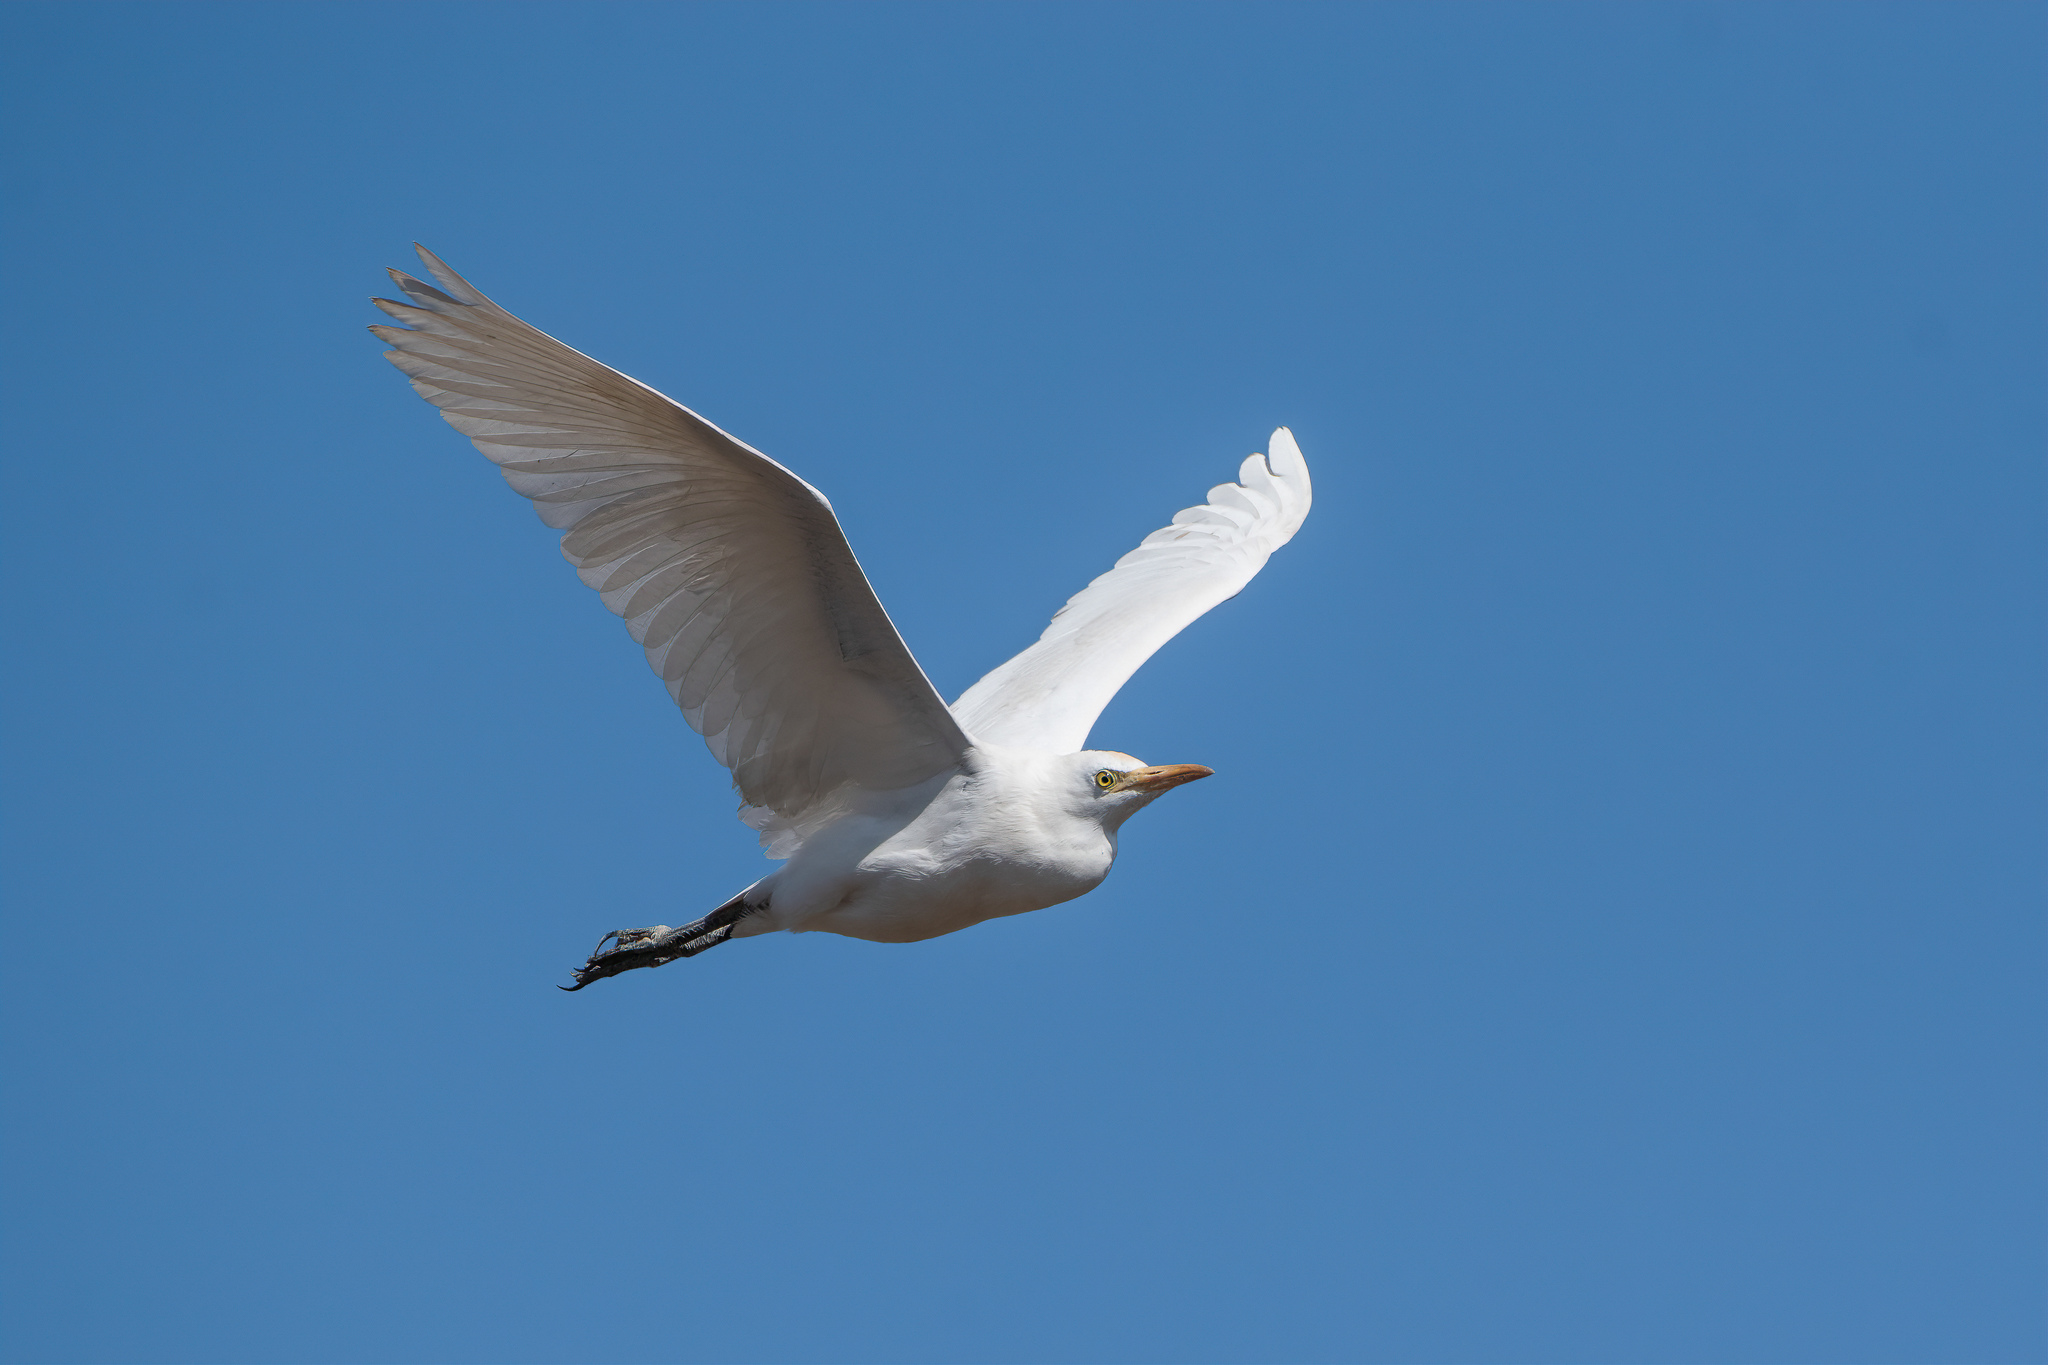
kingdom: Animalia
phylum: Chordata
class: Aves
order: Pelecaniformes
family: Ardeidae
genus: Bubulcus
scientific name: Bubulcus ibis
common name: Cattle egret
